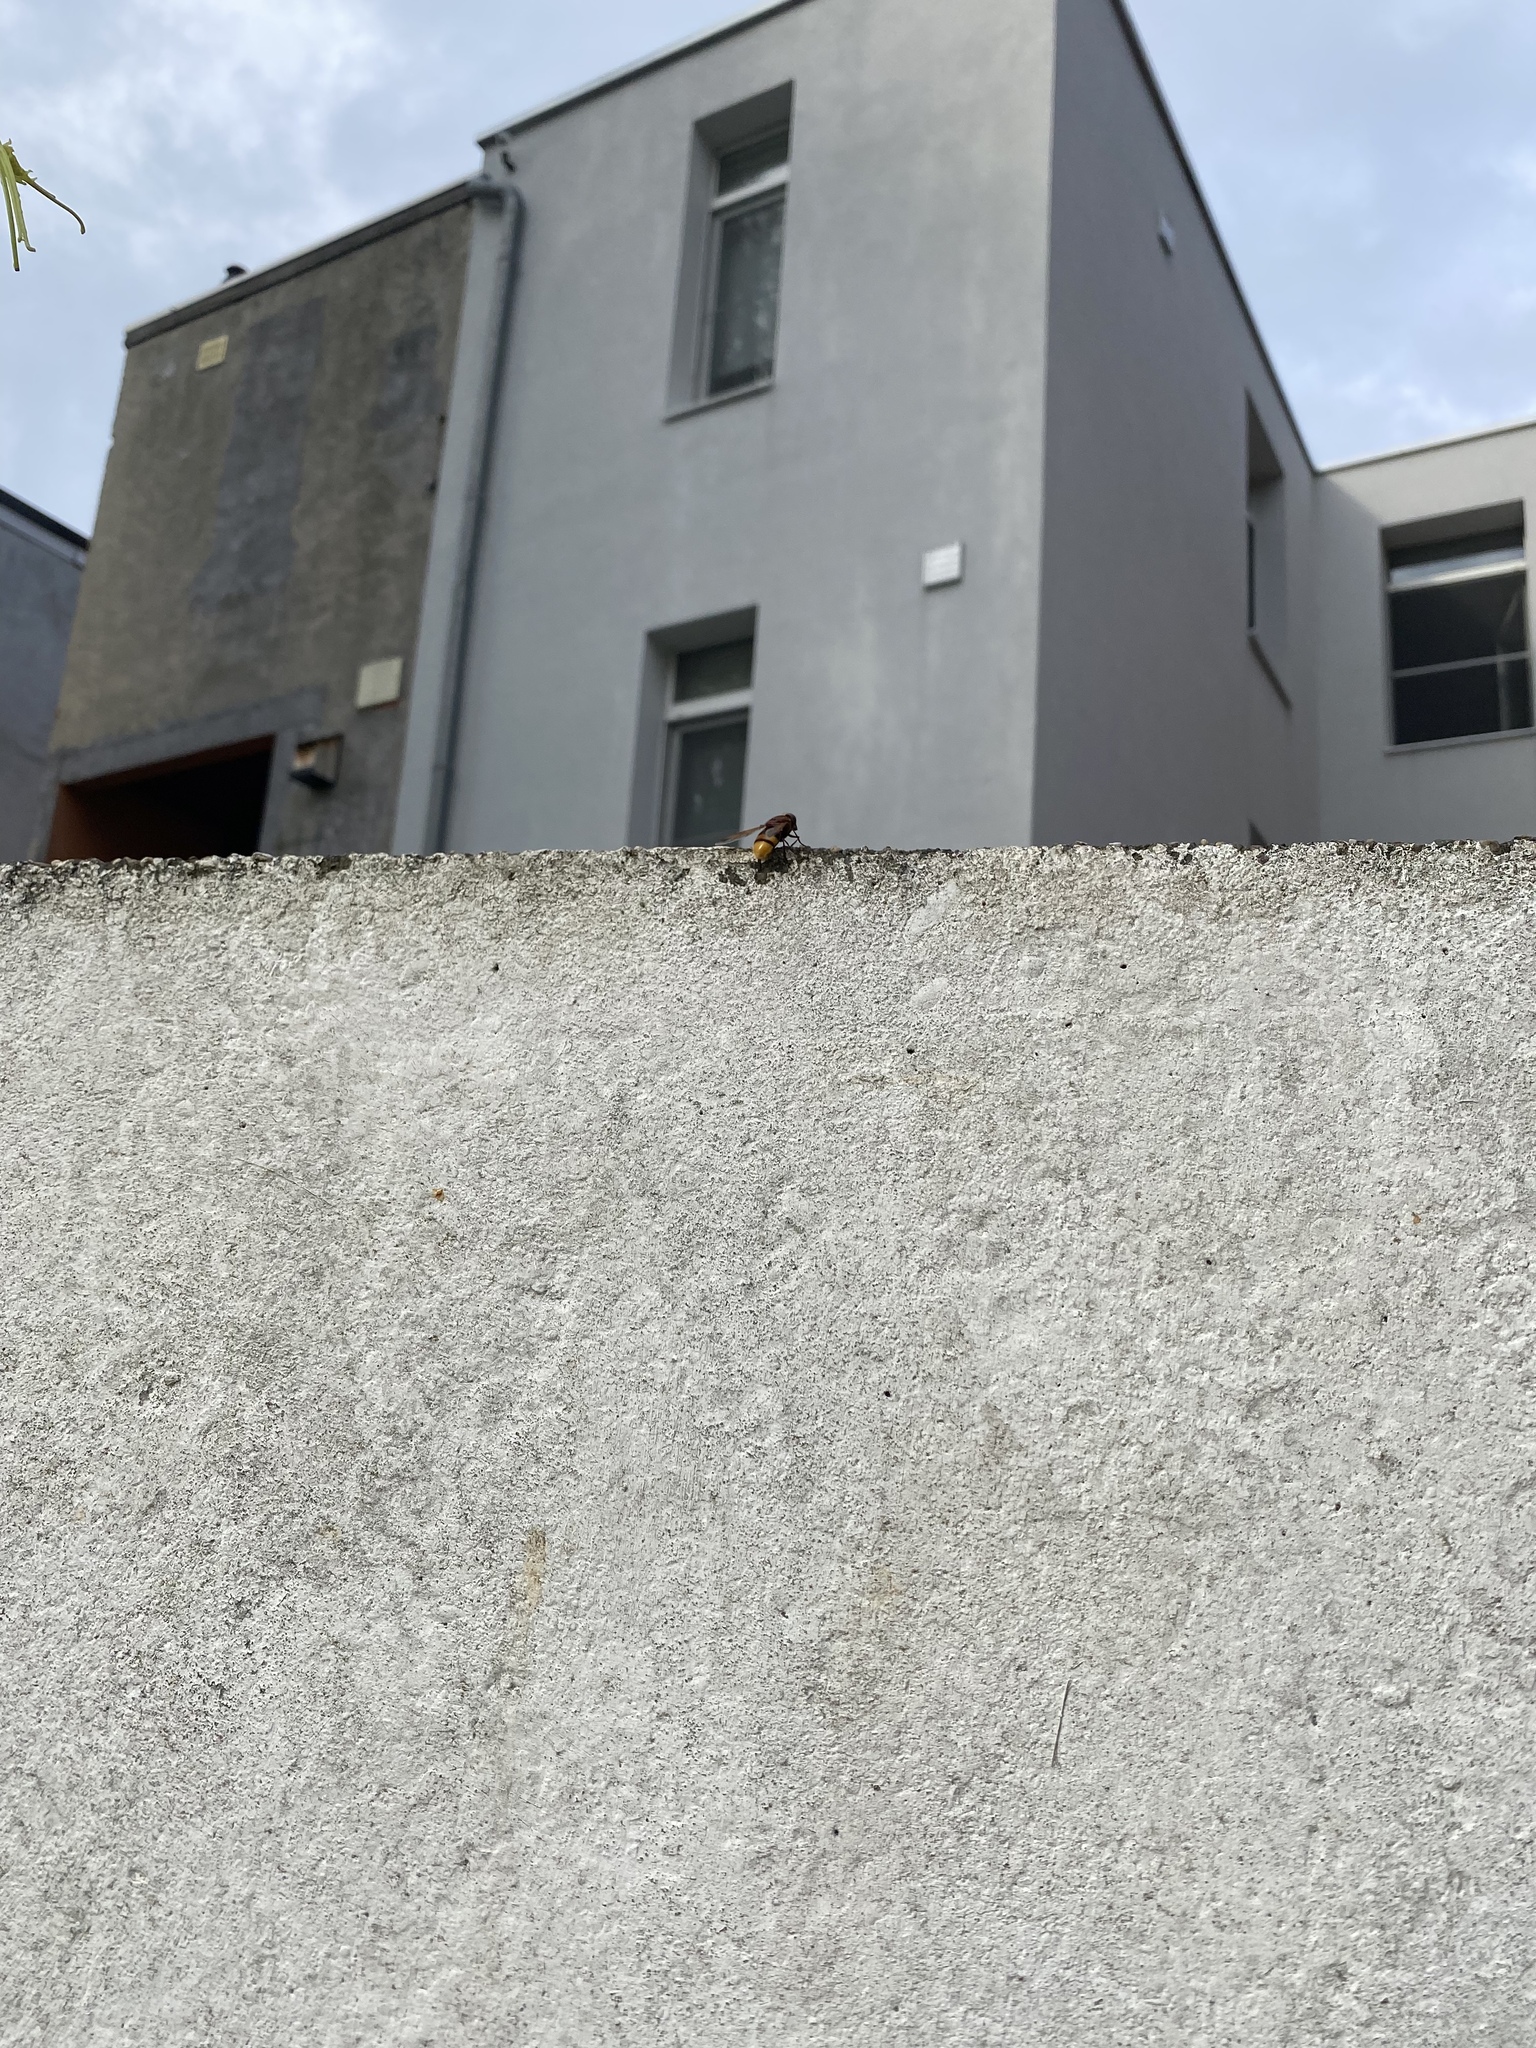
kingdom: Animalia
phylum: Arthropoda
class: Insecta
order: Diptera
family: Syrphidae
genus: Volucella
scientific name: Volucella zonaria
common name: Hornet hoverfly
